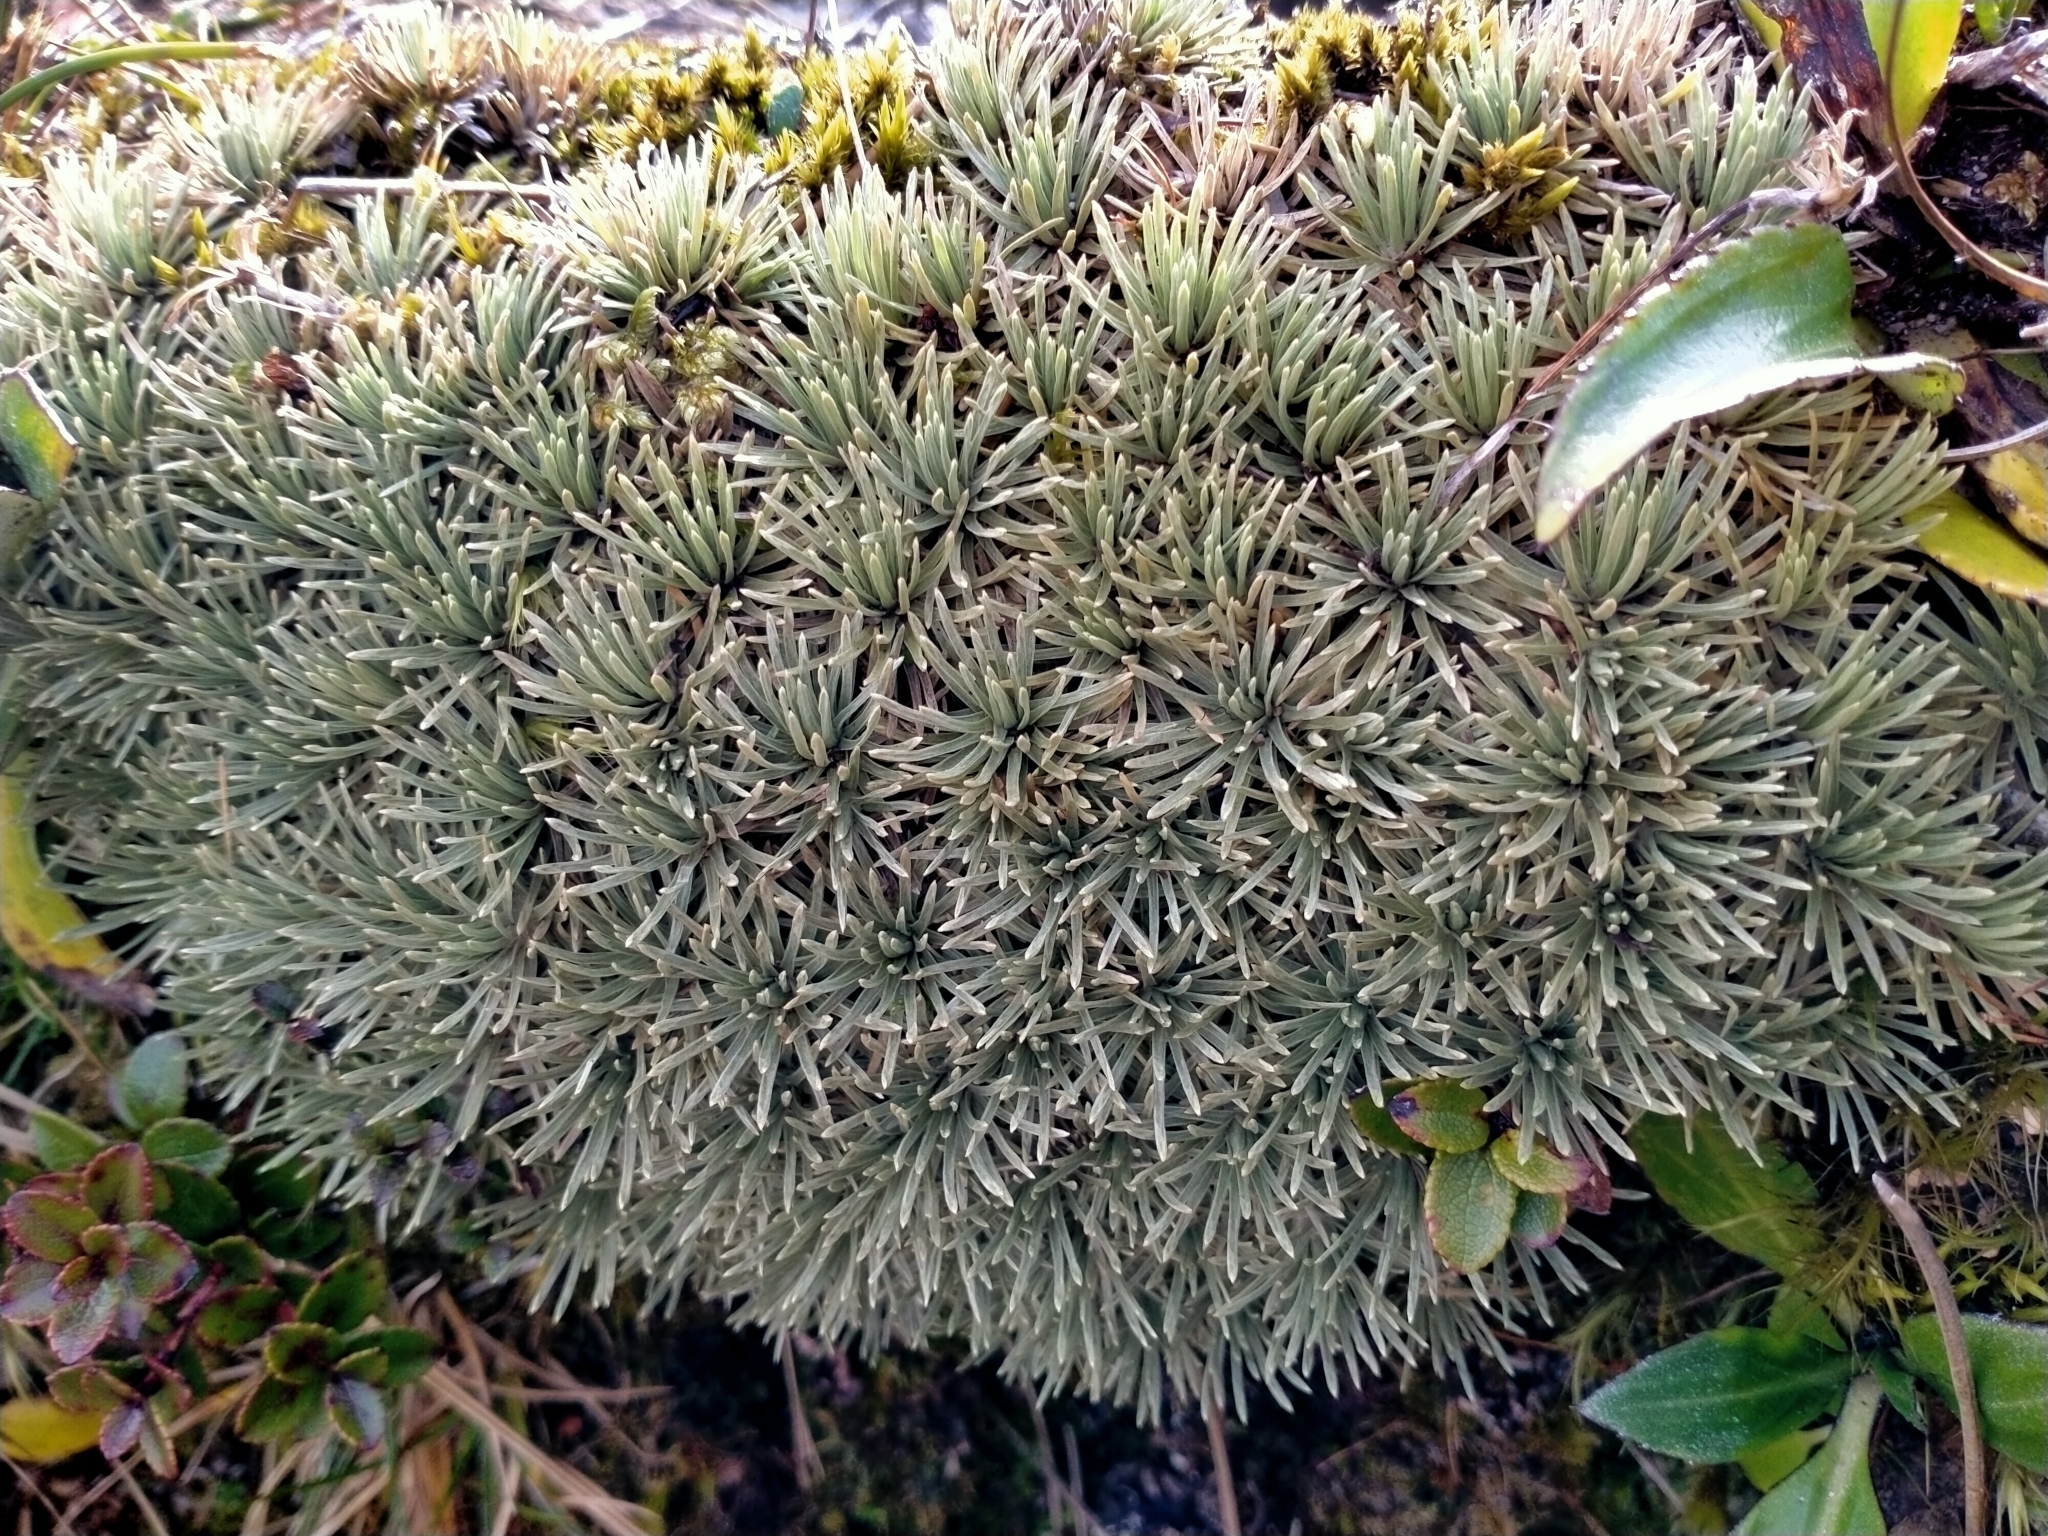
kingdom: Plantae
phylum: Tracheophyta
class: Magnoliopsida
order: Asterales
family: Asteraceae
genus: Celmisia
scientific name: Celmisia sessiliflora
